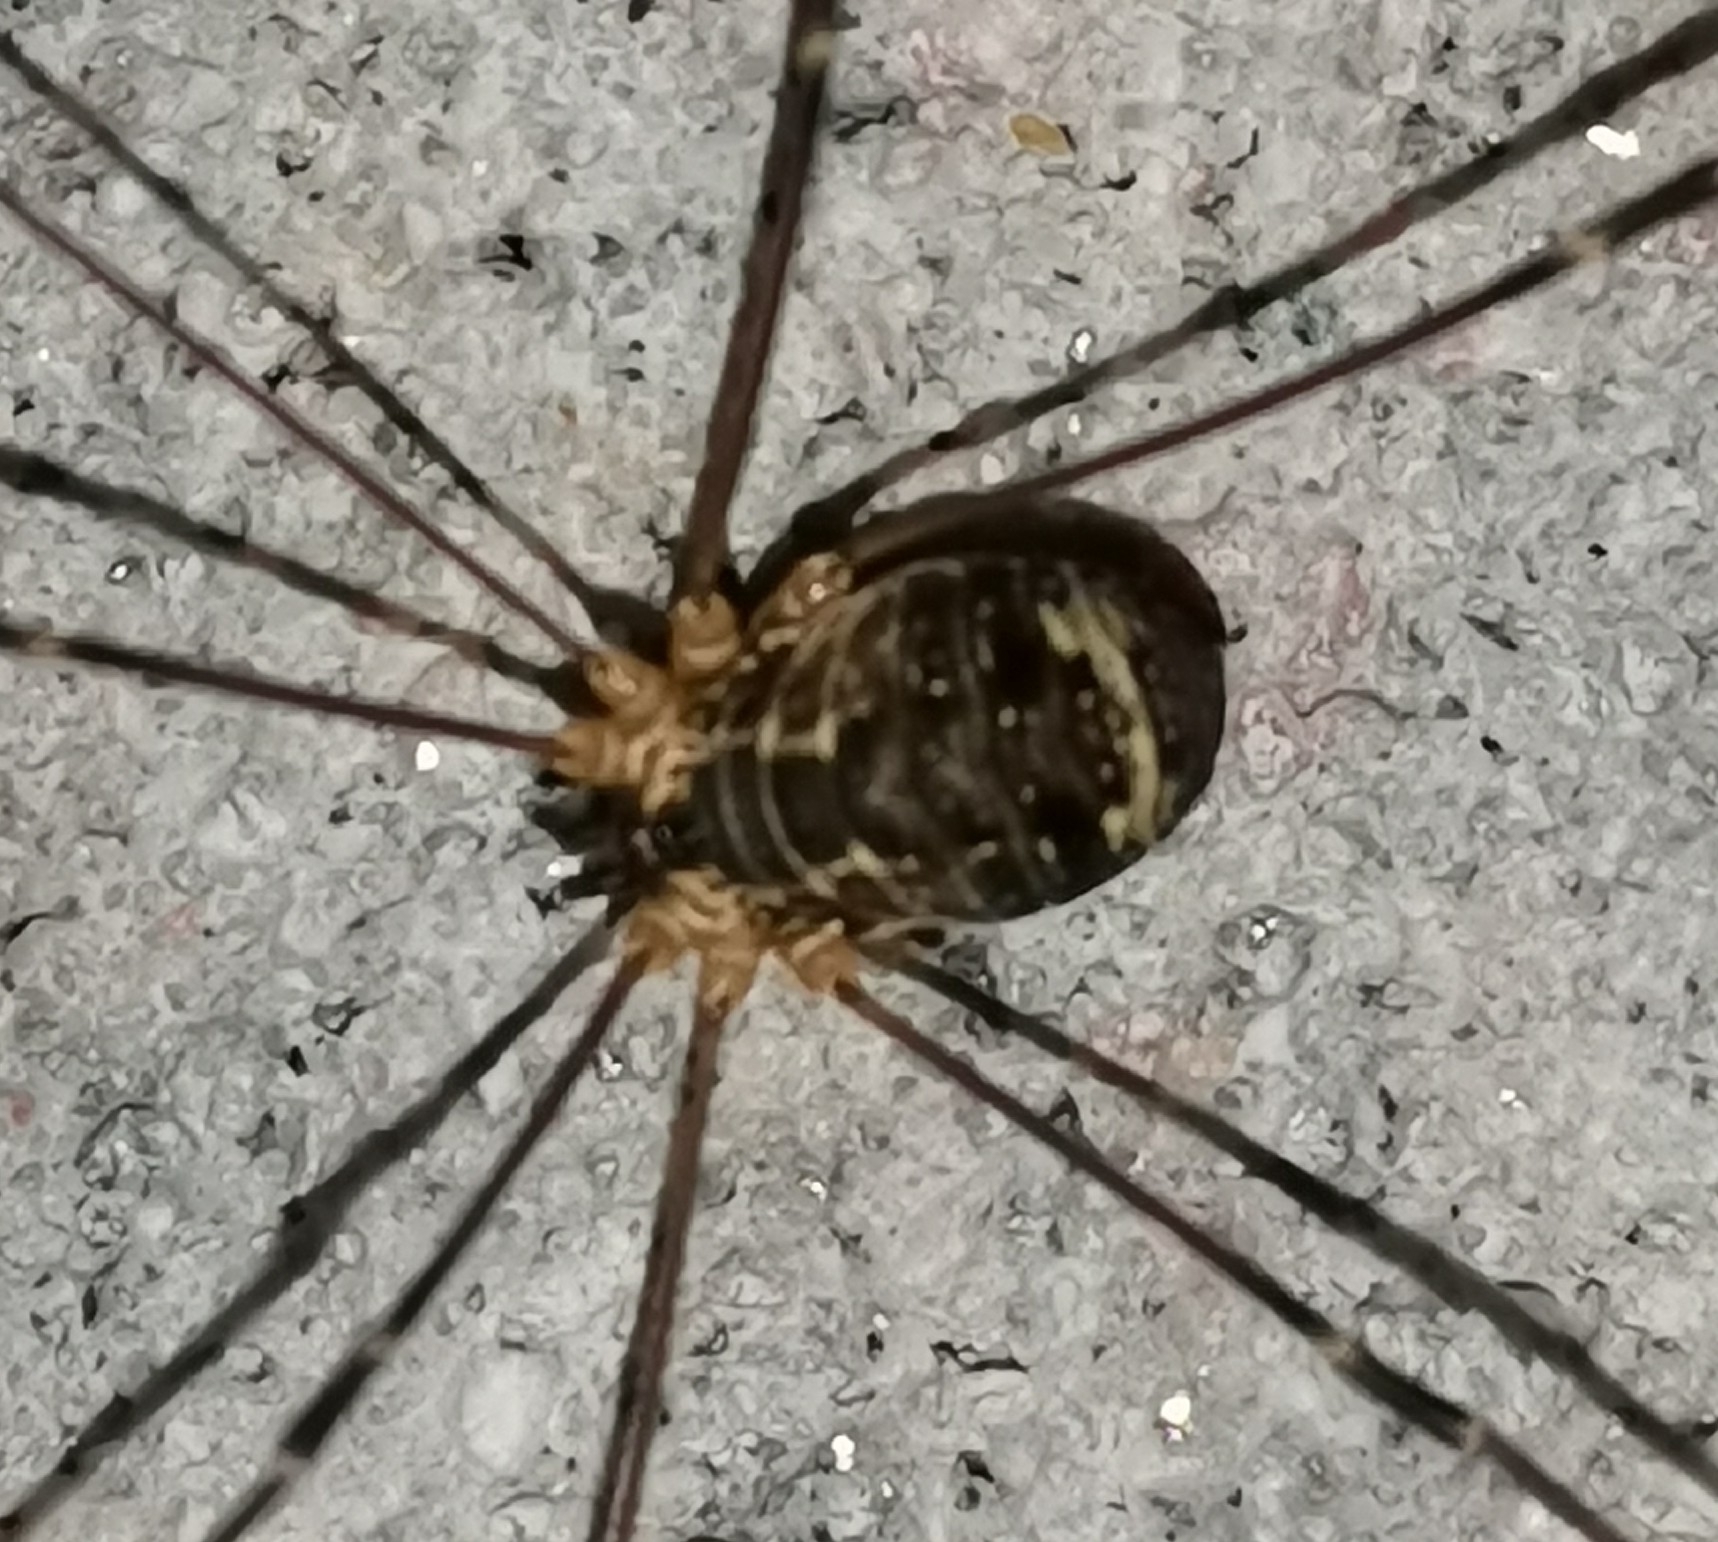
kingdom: Animalia
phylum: Arthropoda
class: Arachnida
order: Opiliones
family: Sclerosomatidae
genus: Leiobunum
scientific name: Leiobunum gracile
